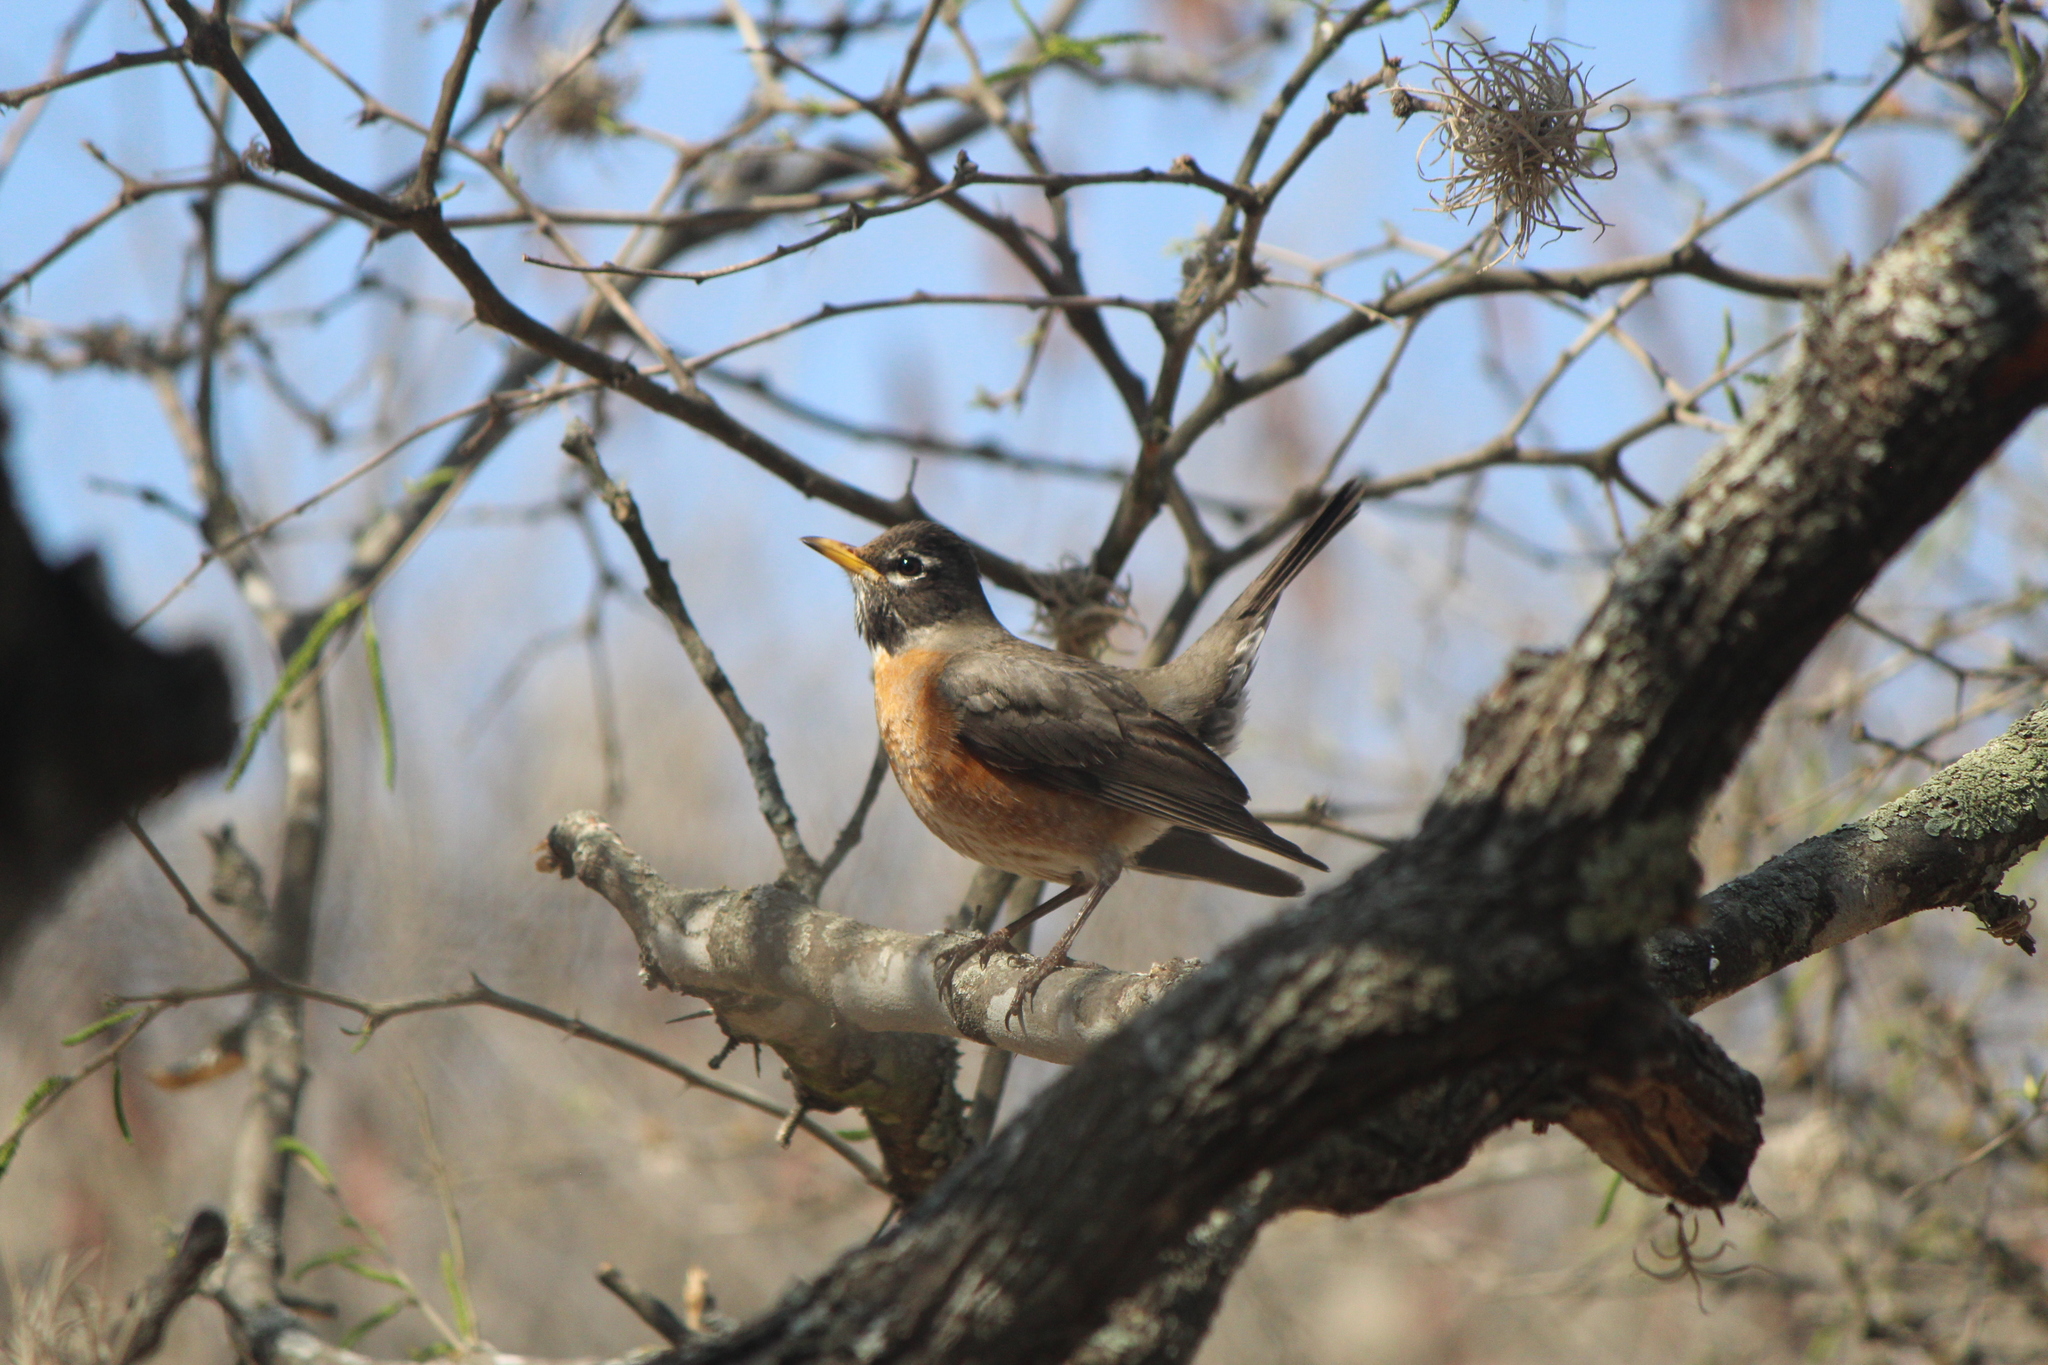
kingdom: Animalia
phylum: Chordata
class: Aves
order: Passeriformes
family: Turdidae
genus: Turdus
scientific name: Turdus migratorius
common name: American robin
